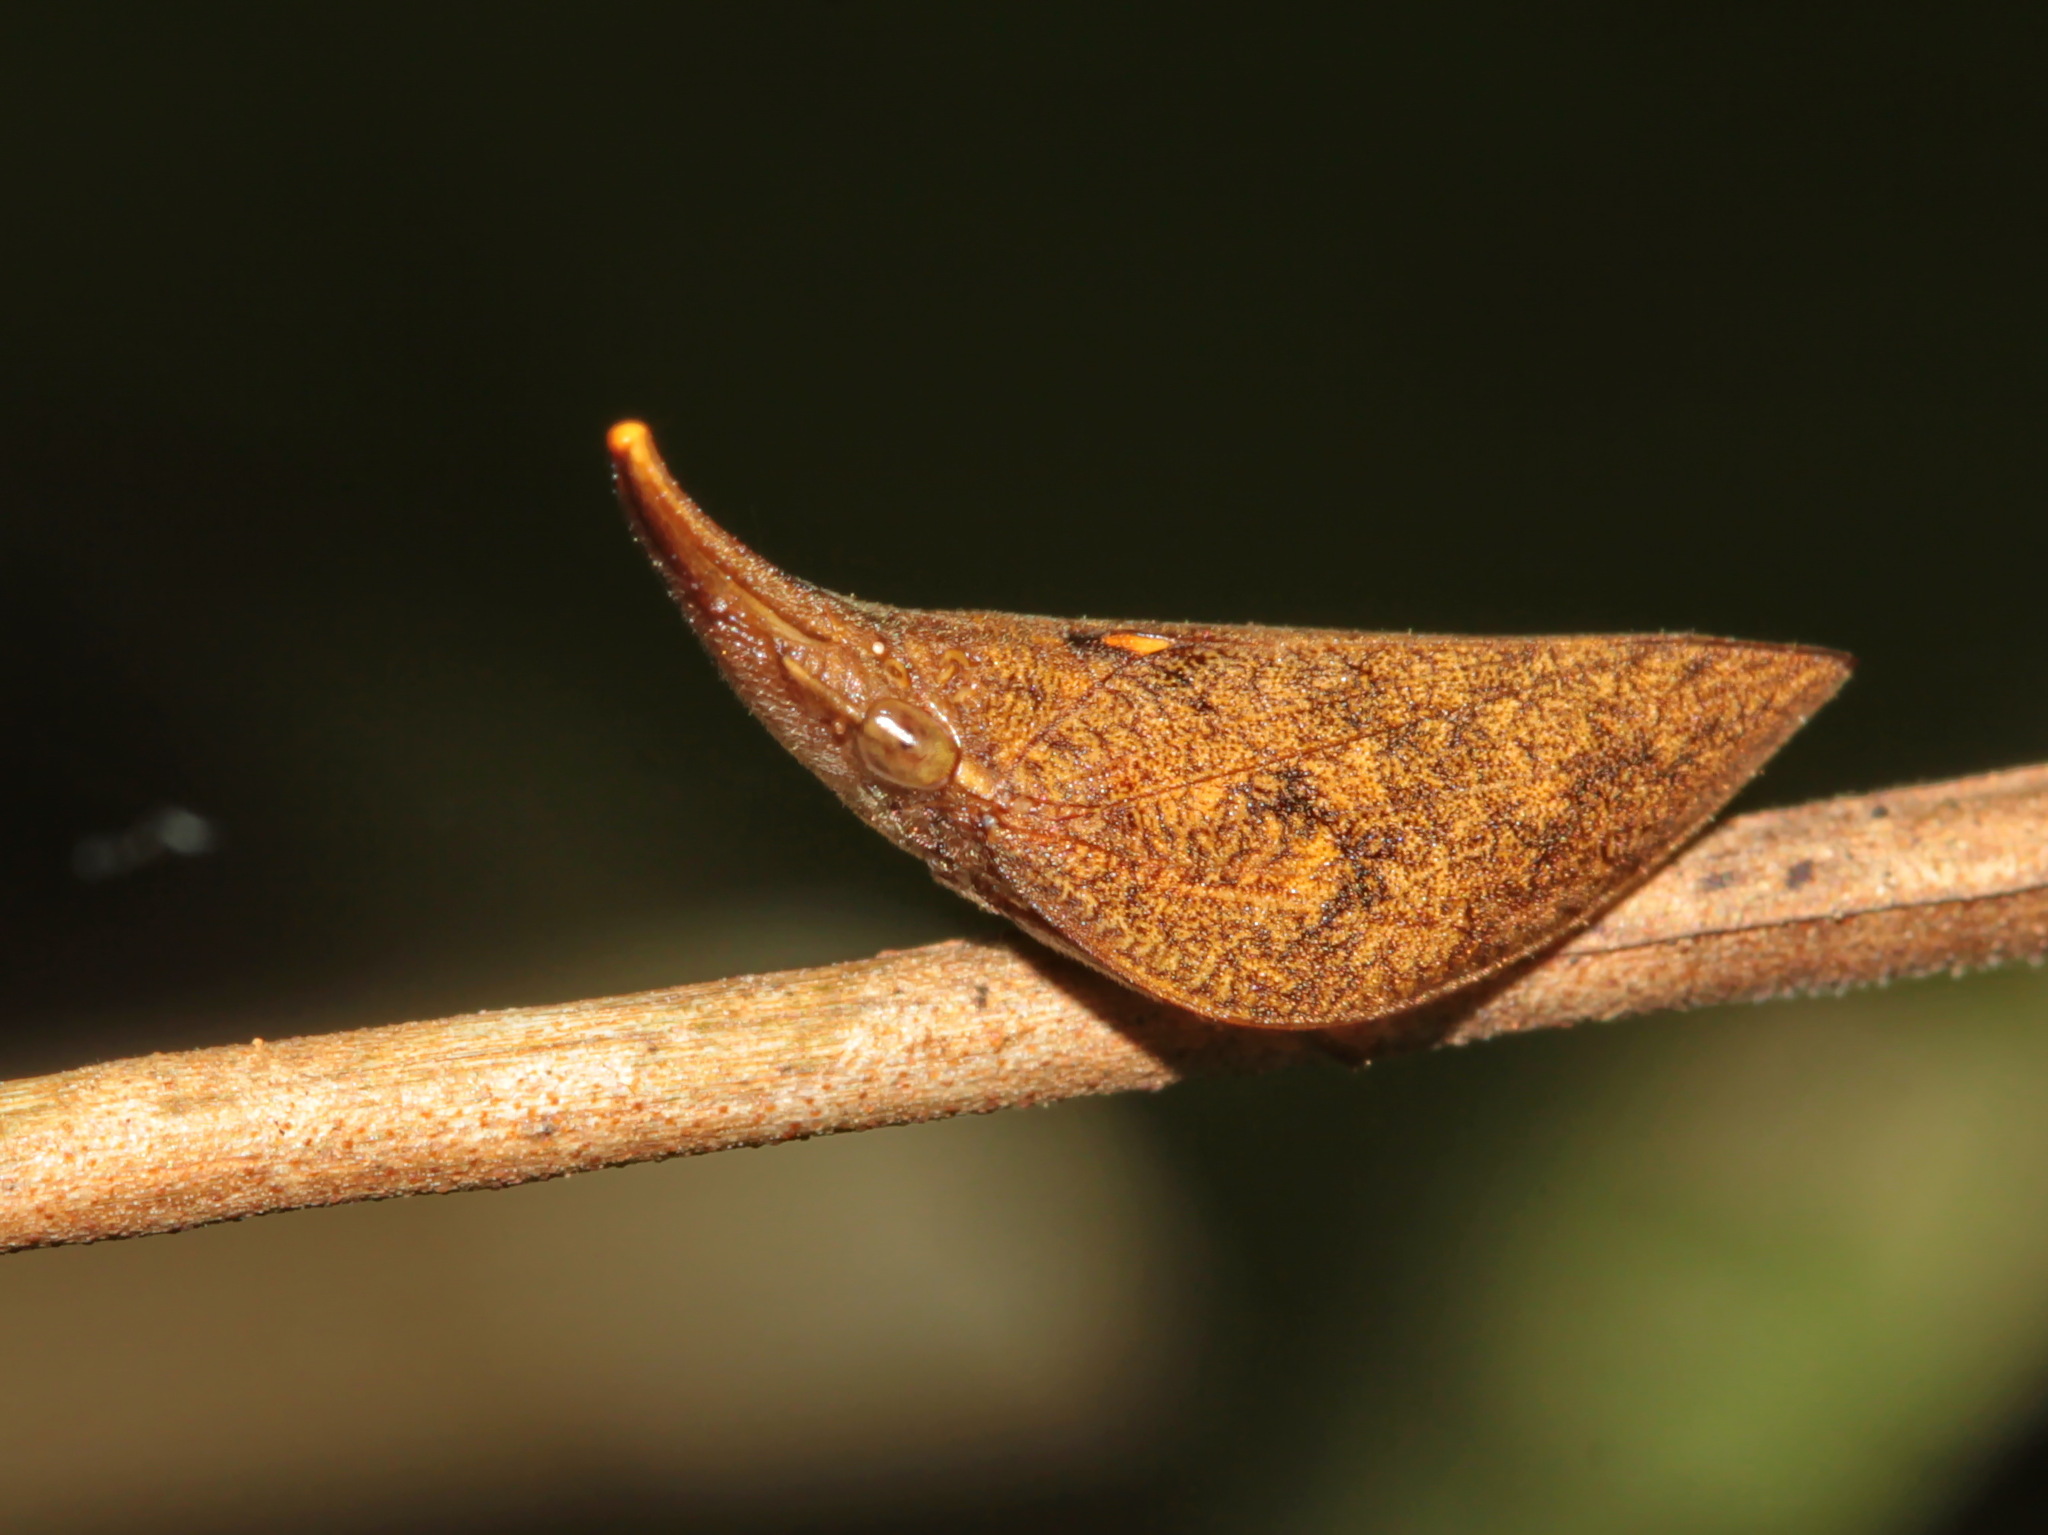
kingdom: Animalia
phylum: Arthropoda
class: Insecta
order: Hemiptera
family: Aphrophoridae
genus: Philagra
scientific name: Philagra fusiformis
